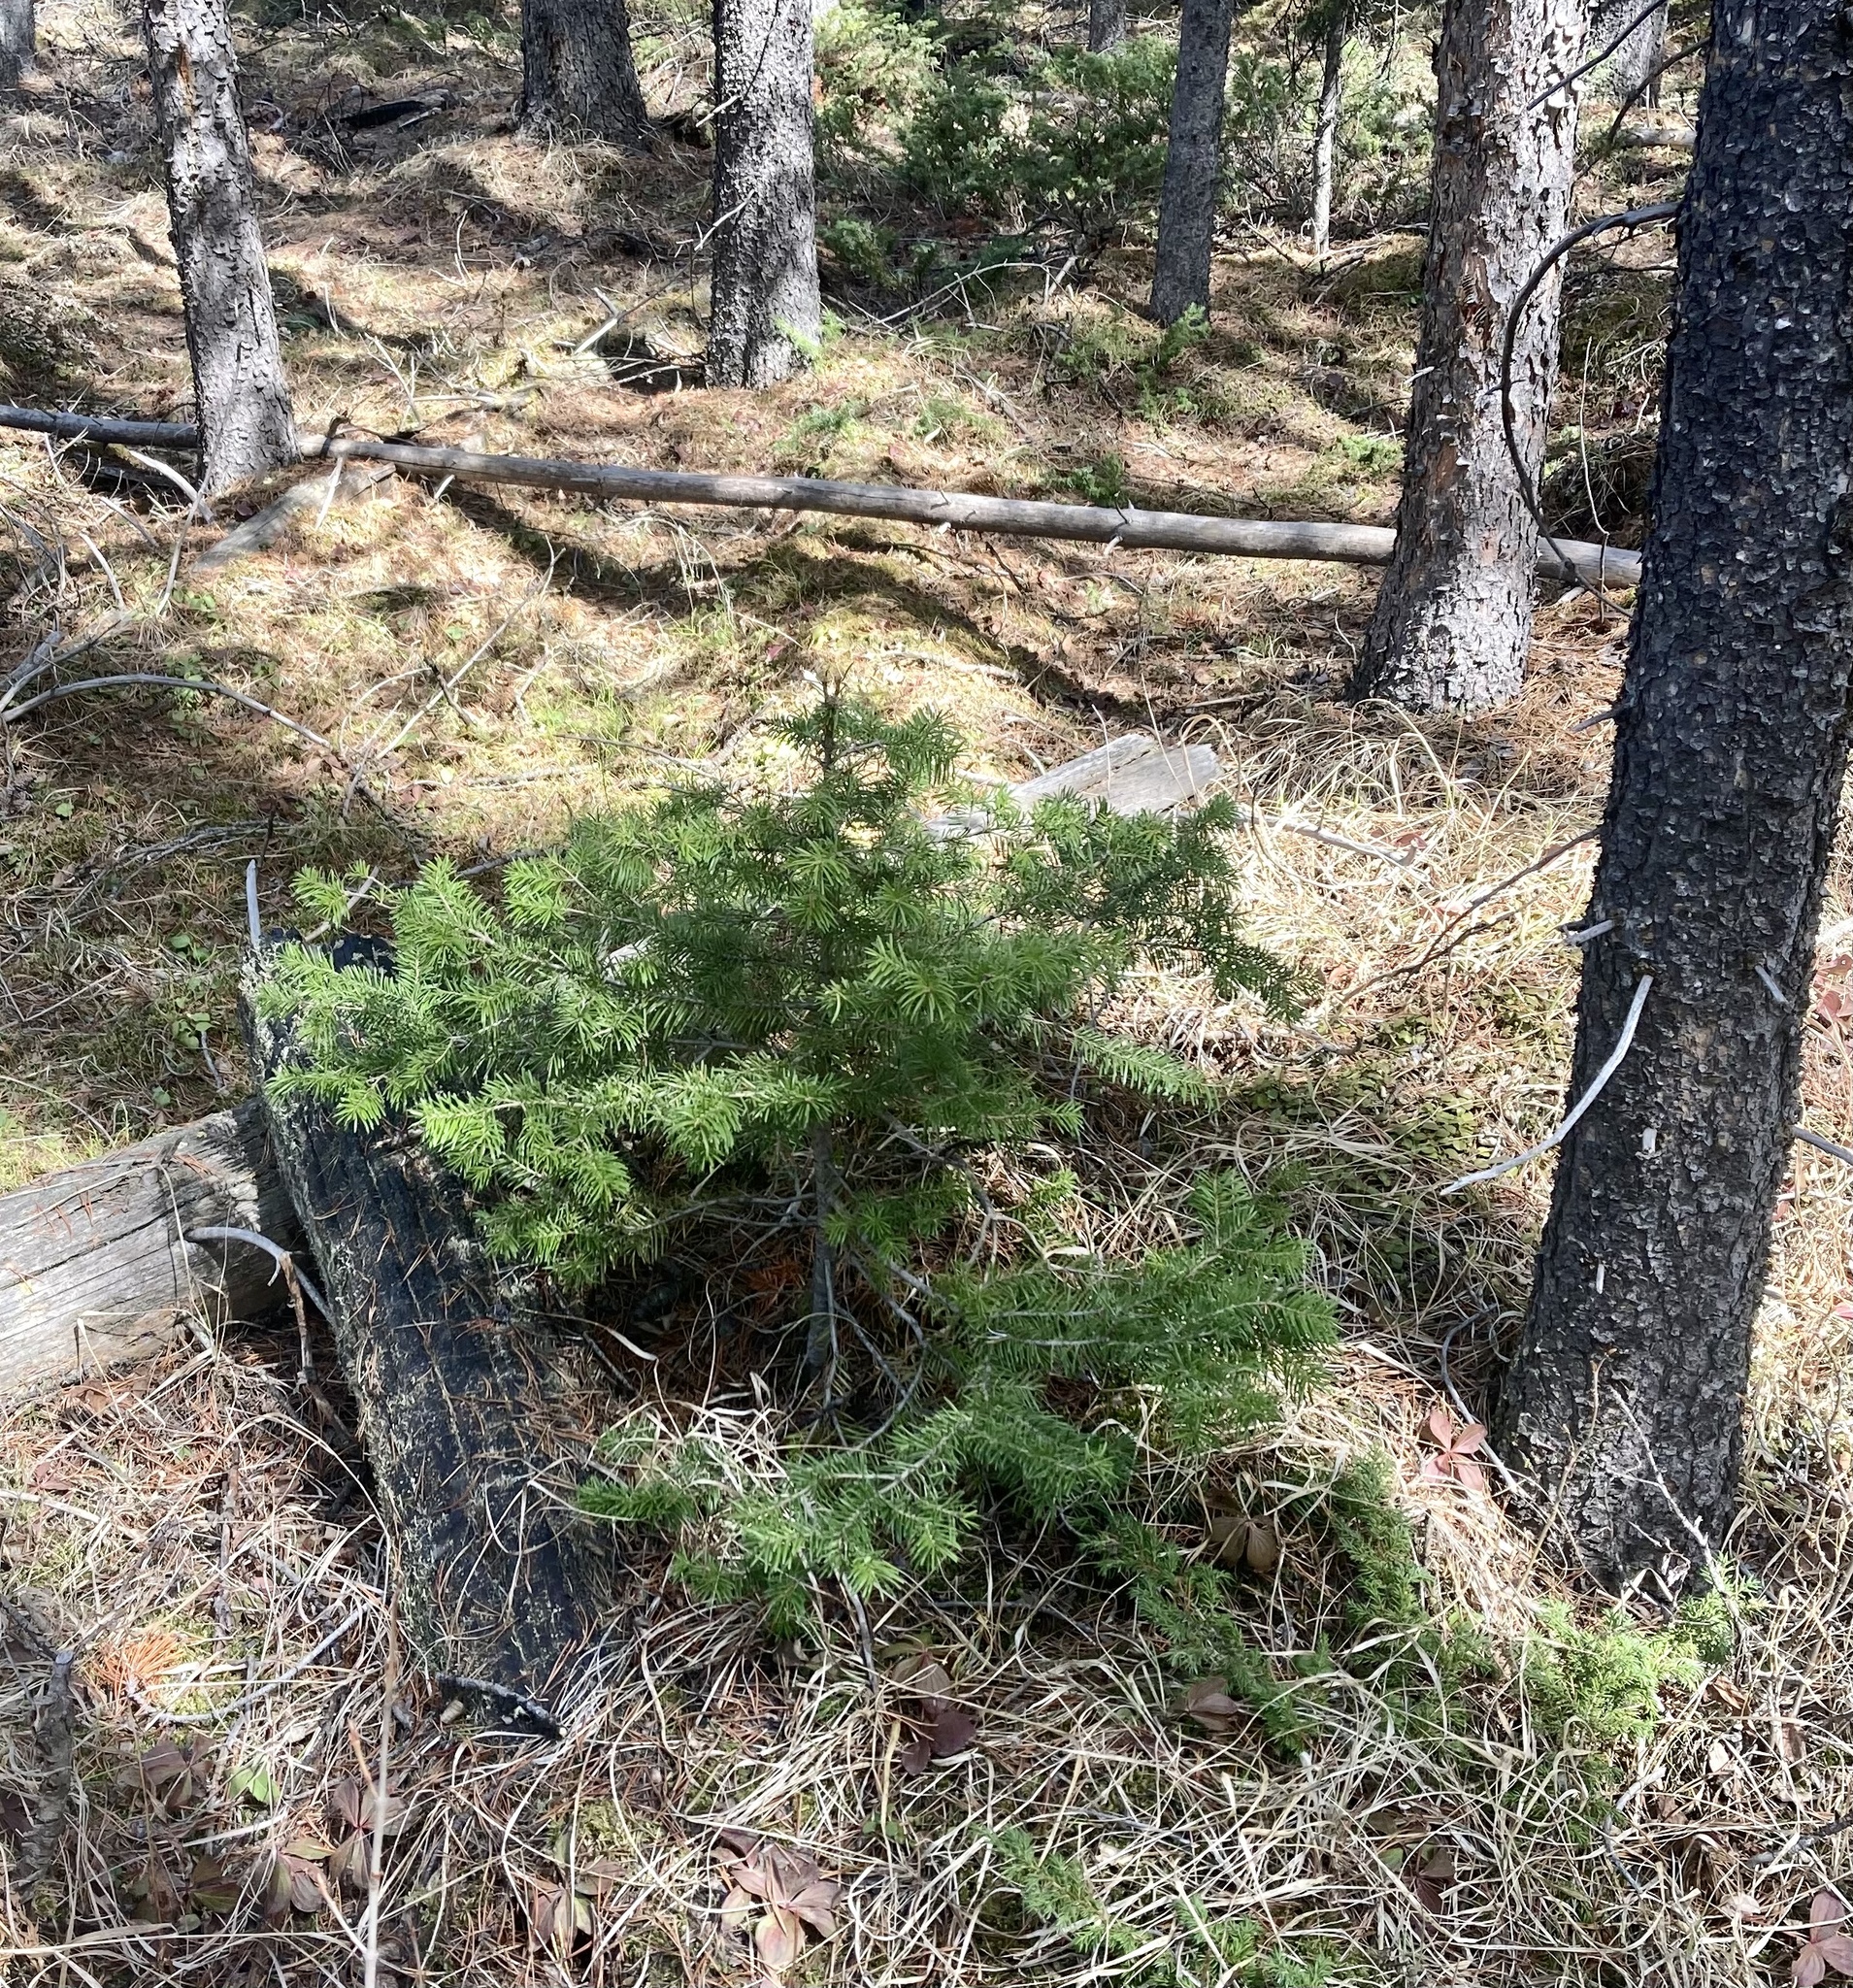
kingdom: Plantae
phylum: Tracheophyta
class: Pinopsida
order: Pinales
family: Pinaceae
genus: Abies
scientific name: Abies lasiocarpa
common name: Subalpine fir
